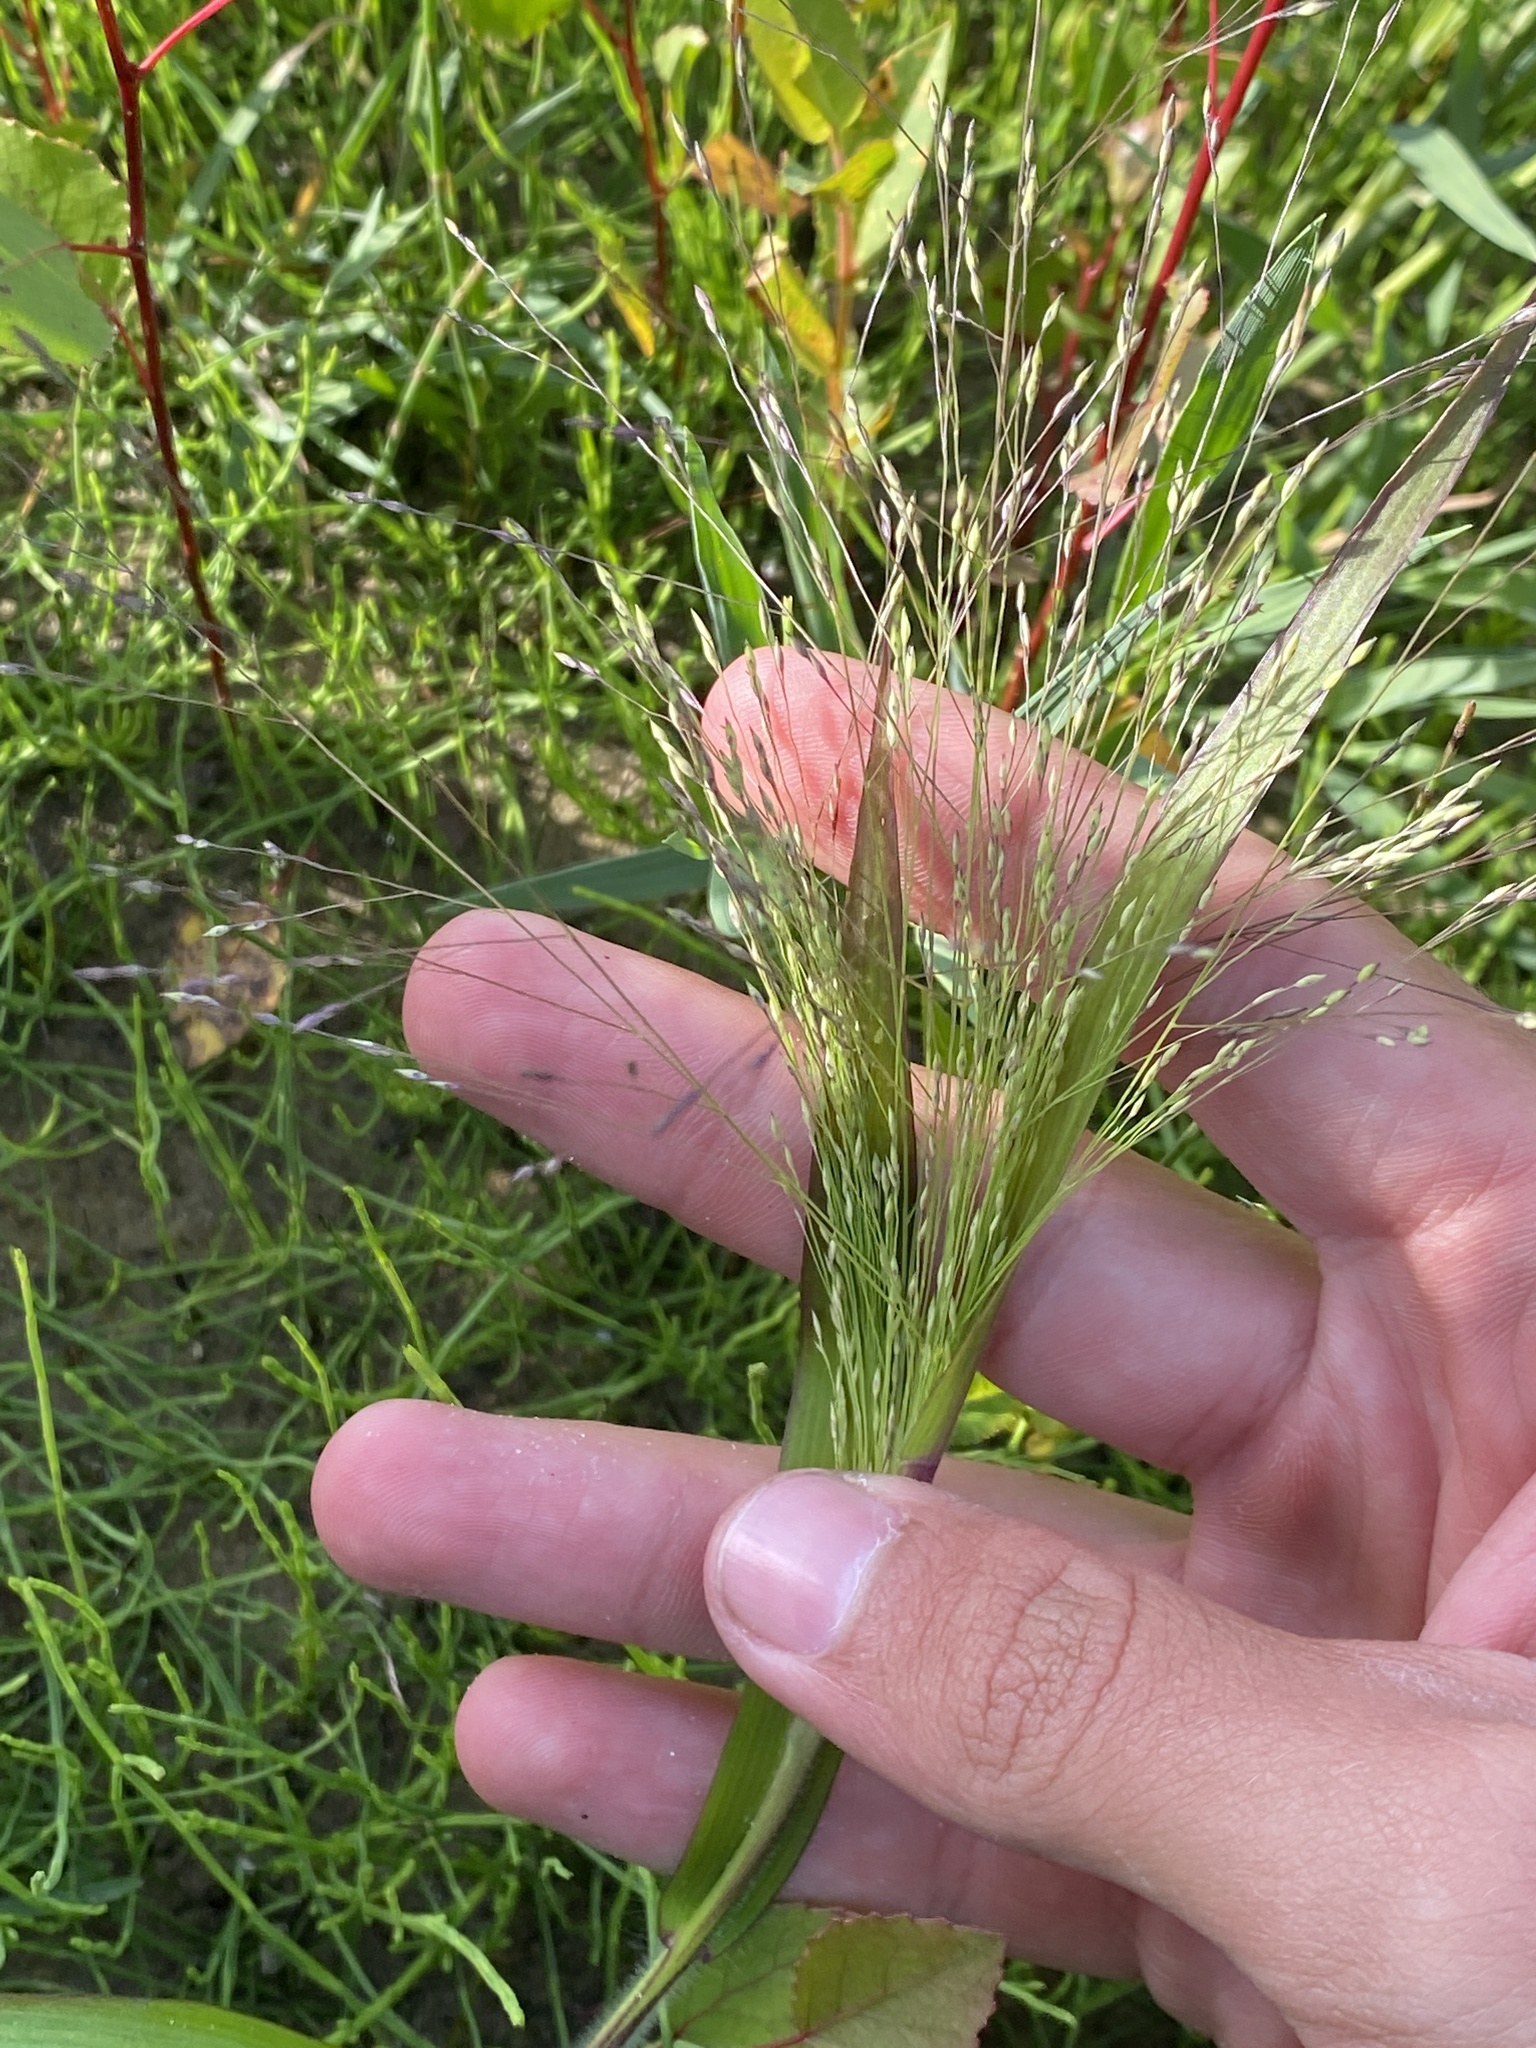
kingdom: Plantae
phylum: Tracheophyta
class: Liliopsida
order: Poales
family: Poaceae
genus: Panicum
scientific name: Panicum capillare
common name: Witch-grass
